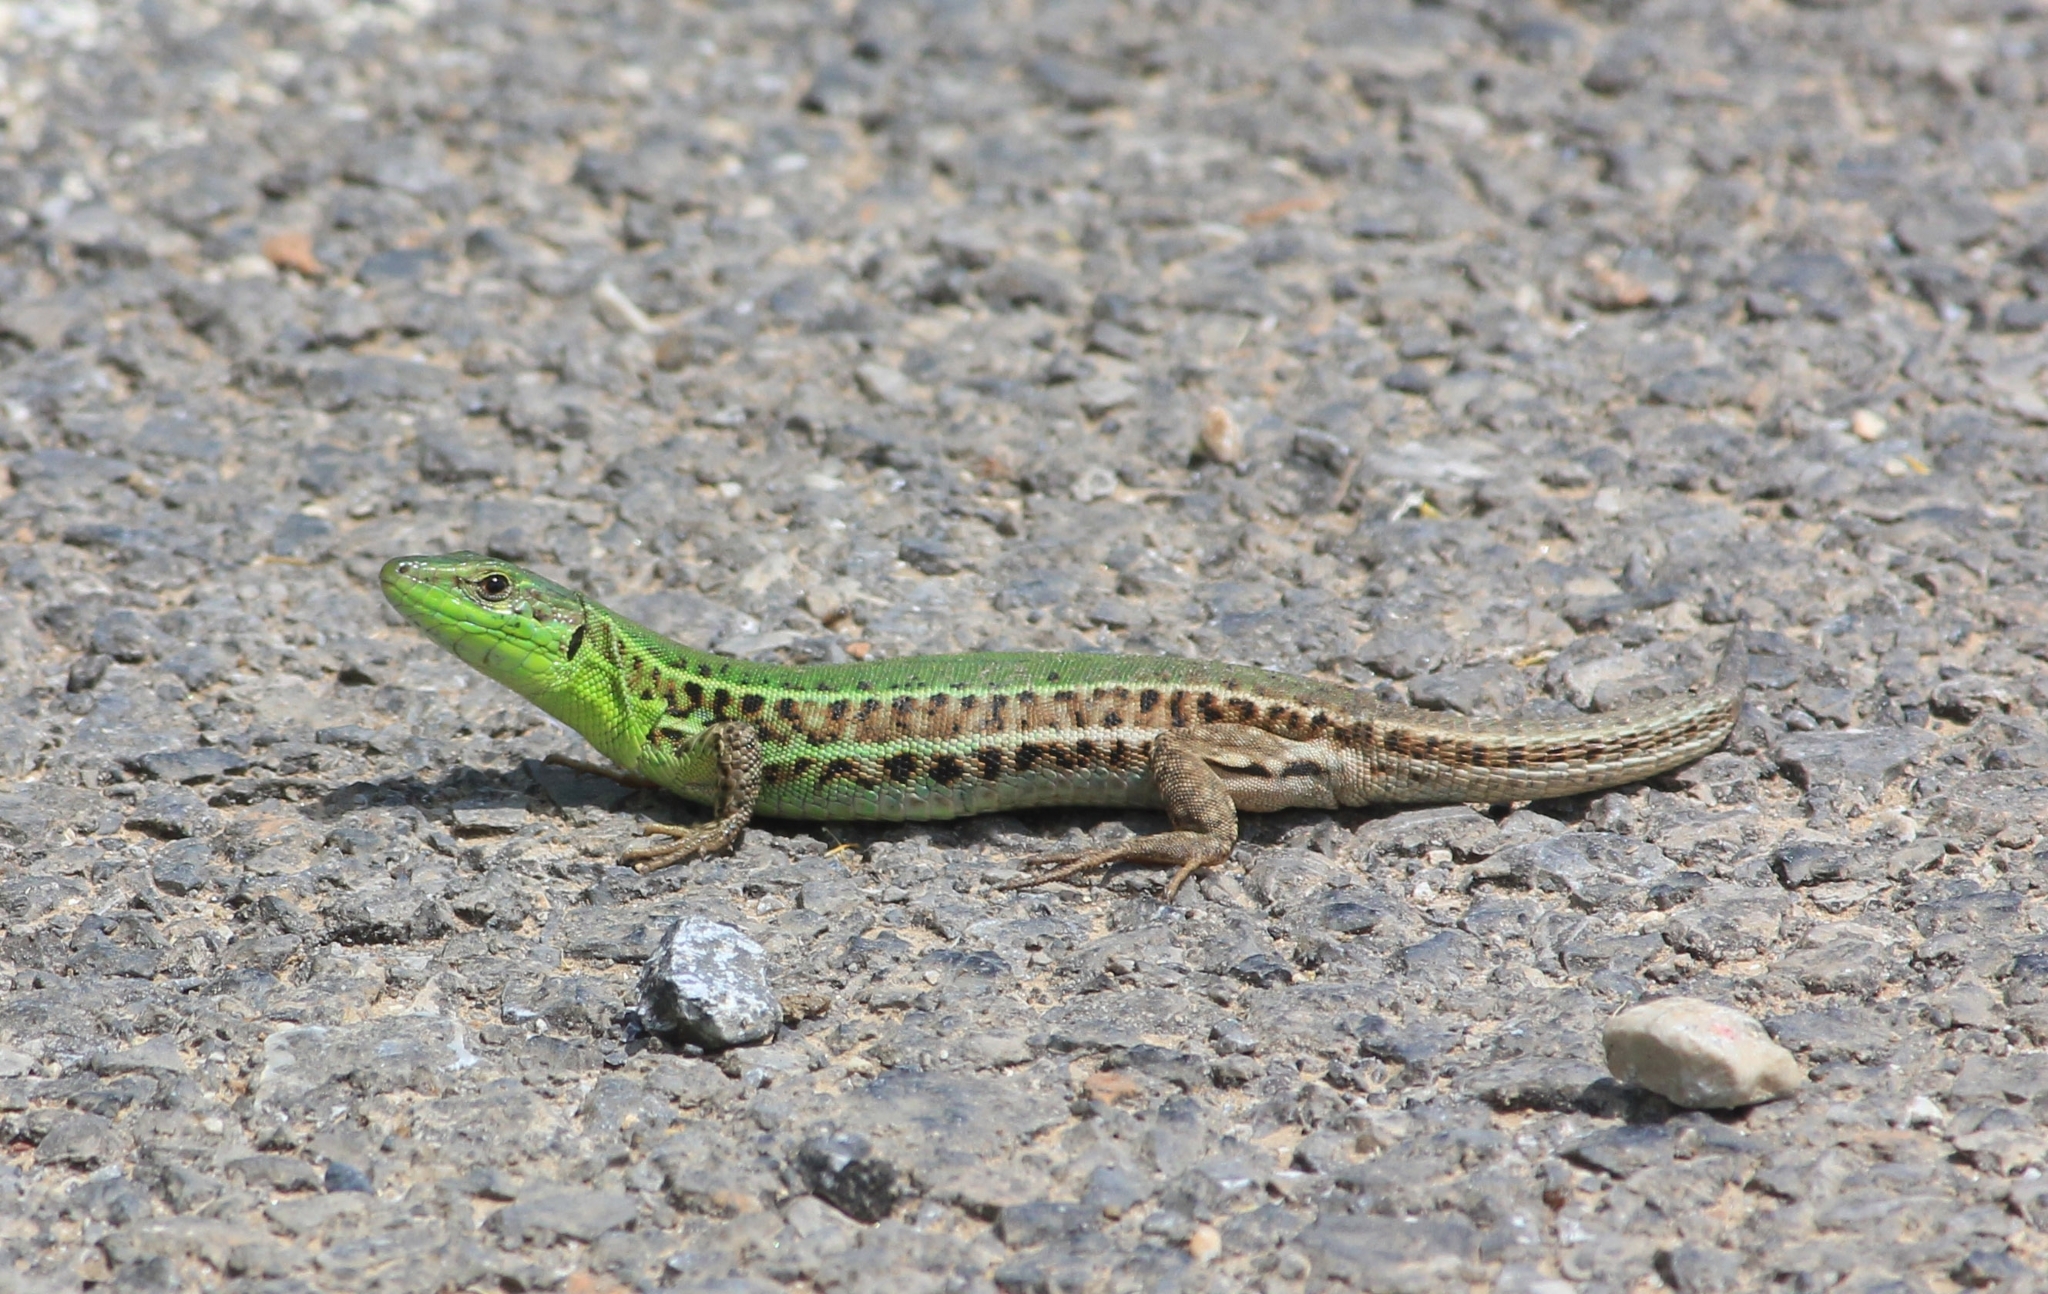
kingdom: Animalia
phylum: Chordata
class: Squamata
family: Lacertidae
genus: Podarcis
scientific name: Podarcis ionicus
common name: Ionian wall lizard
